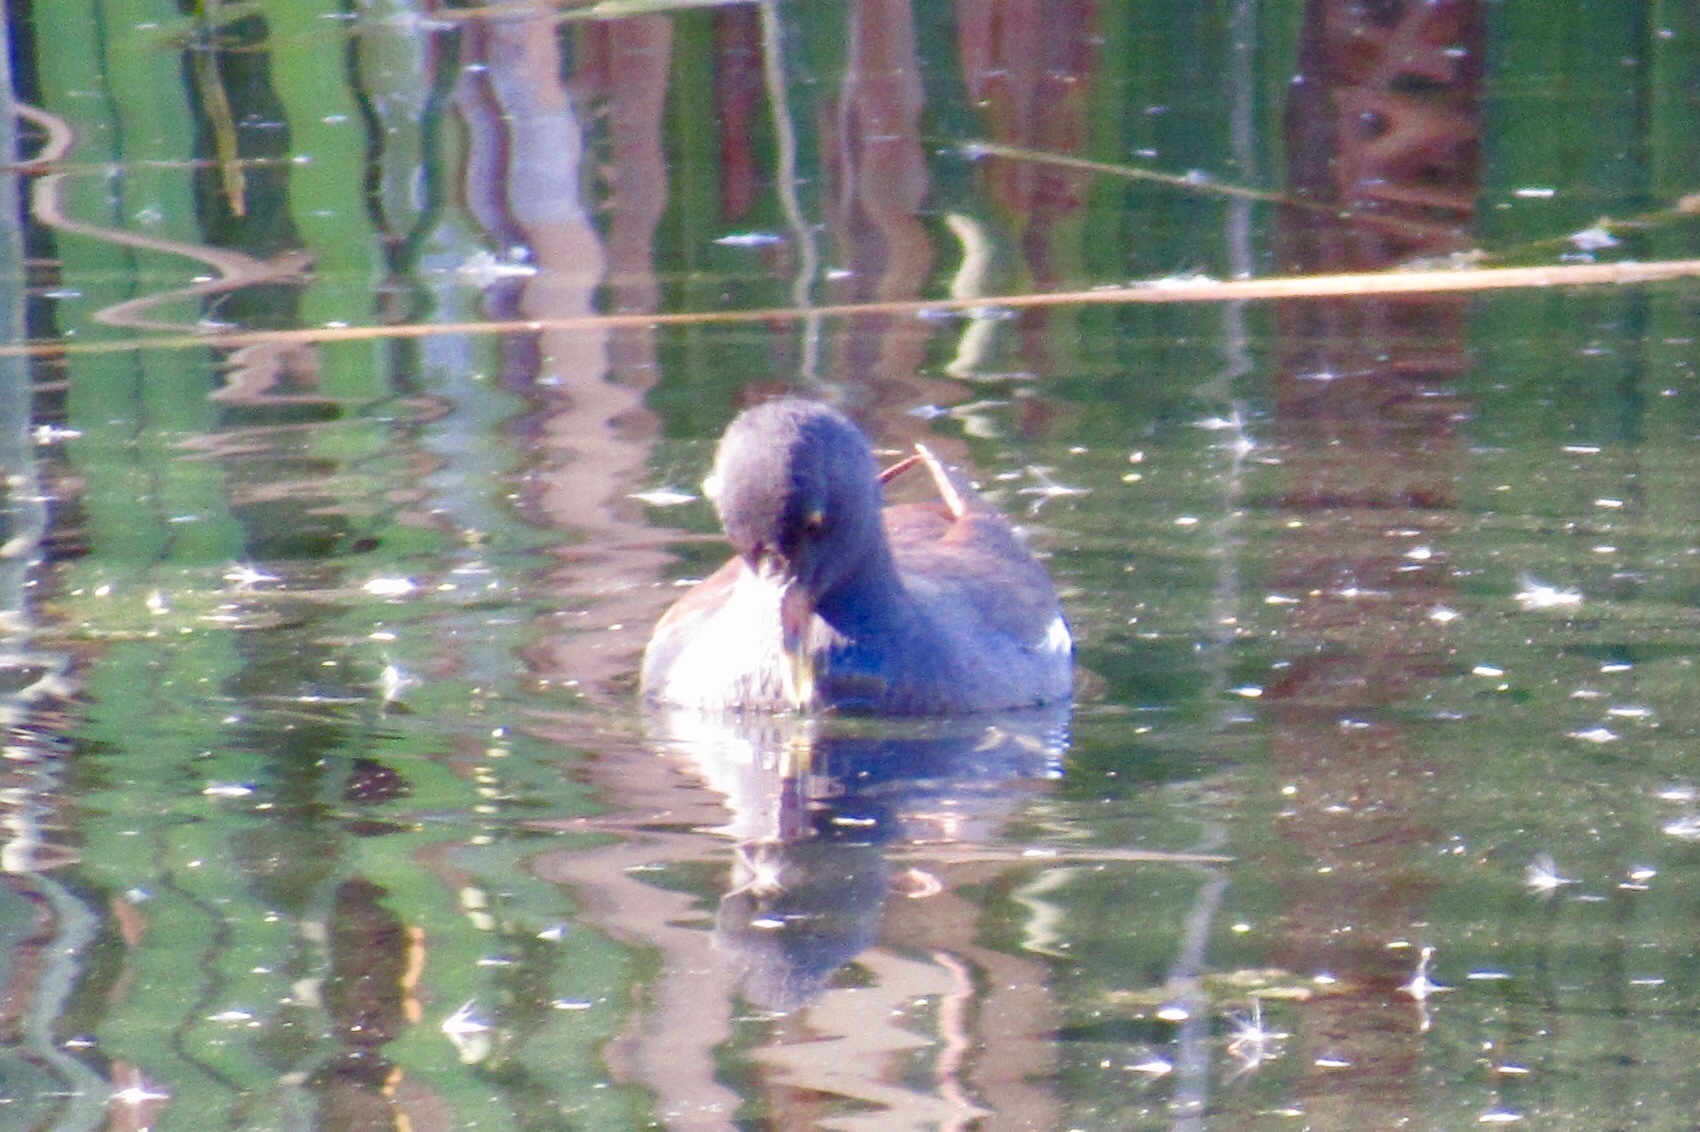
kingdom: Animalia
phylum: Chordata
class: Aves
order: Gruiformes
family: Rallidae
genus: Gallinula
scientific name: Gallinula chloropus
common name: Common moorhen
